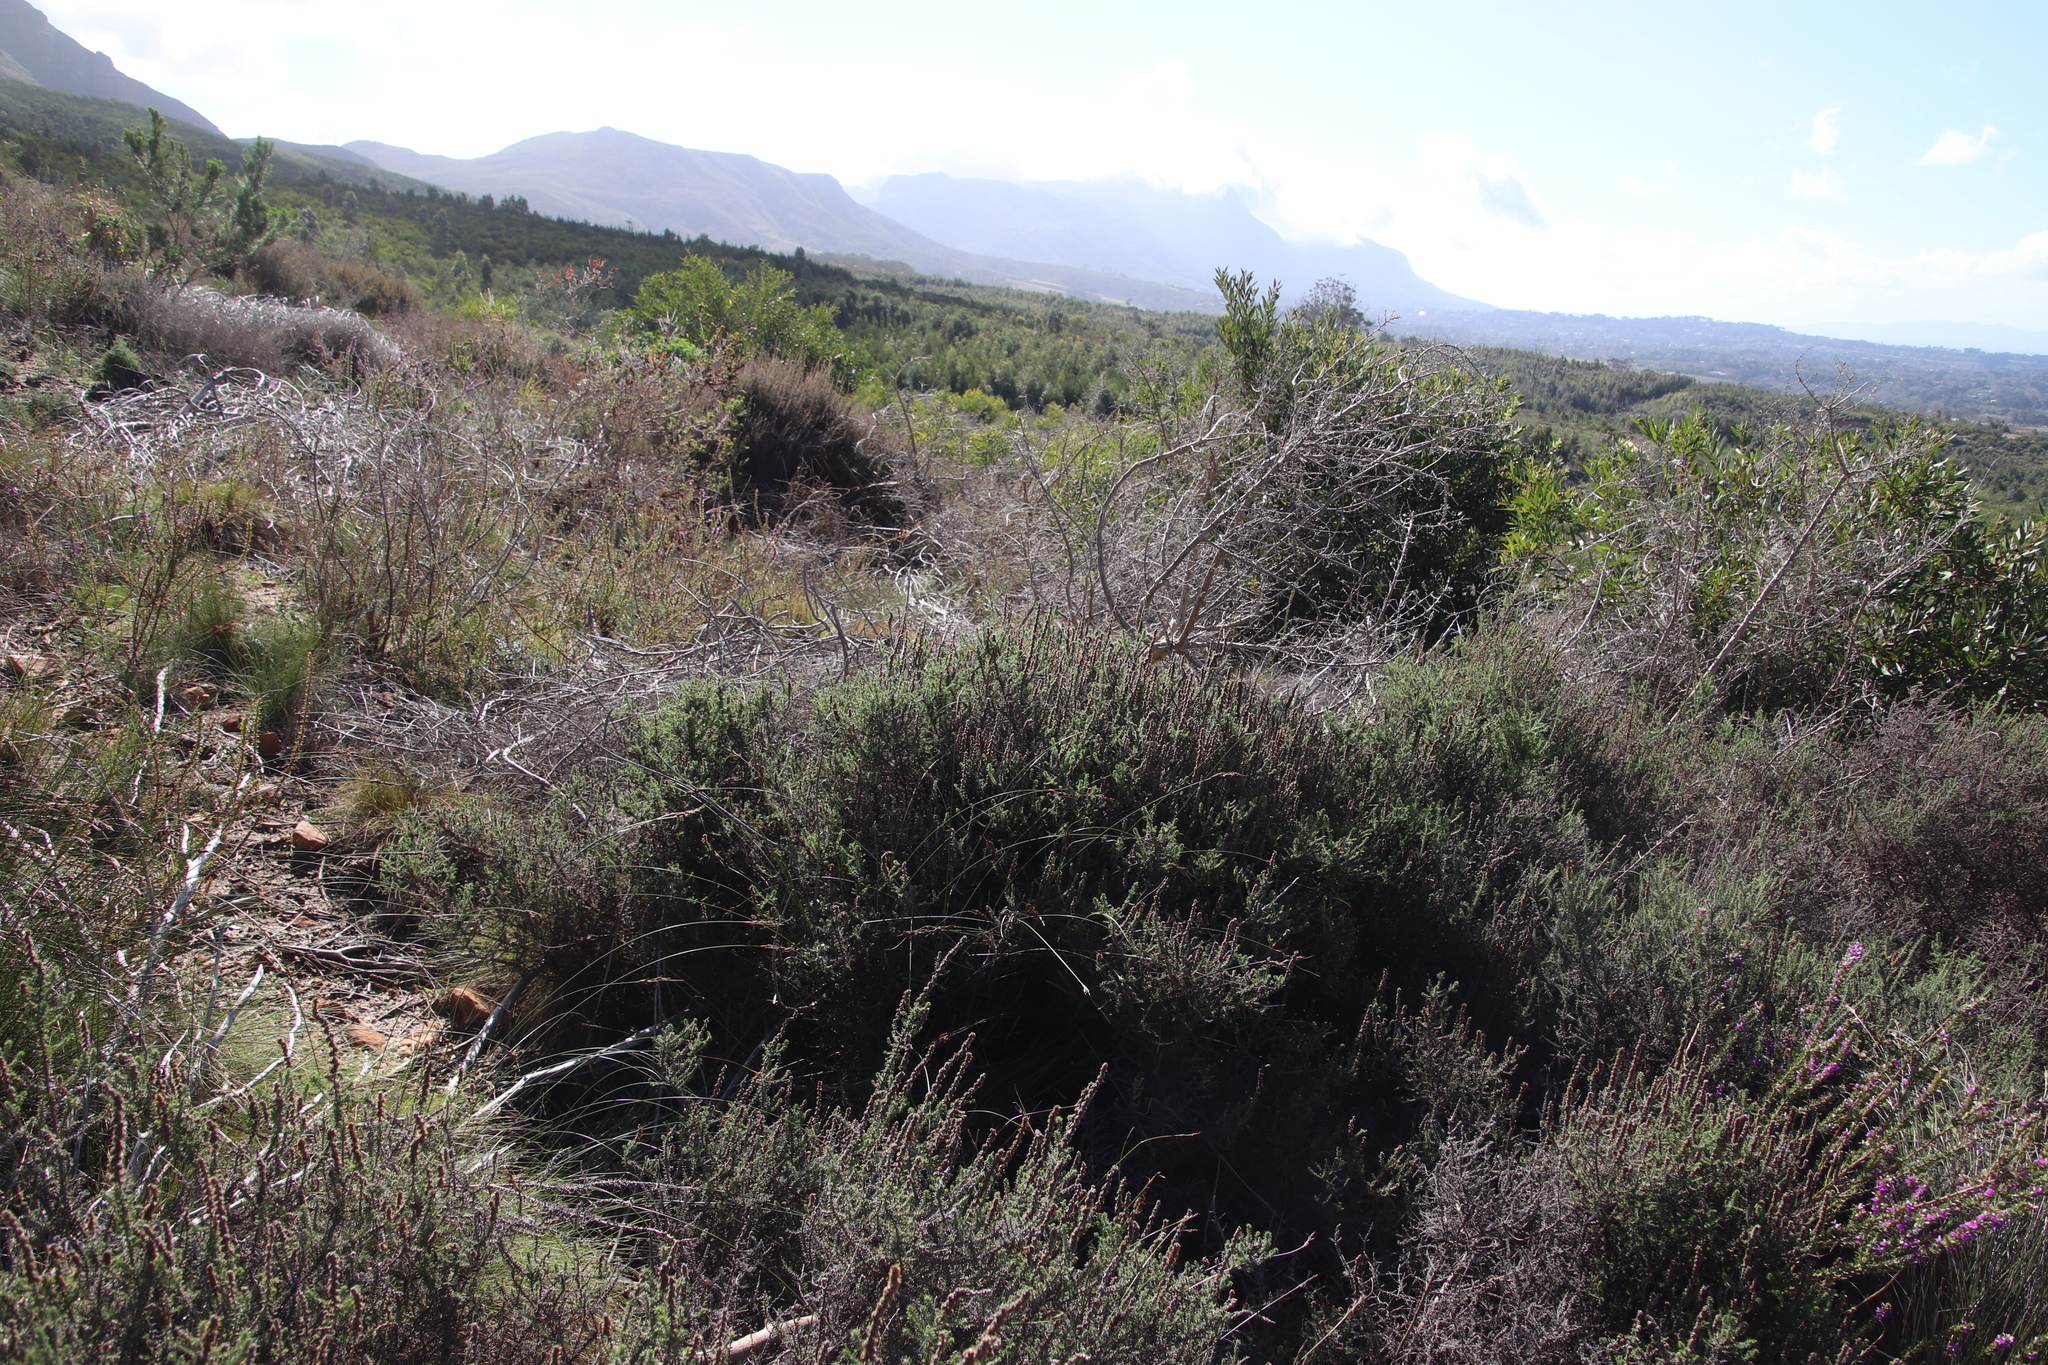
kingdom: Plantae
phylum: Tracheophyta
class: Magnoliopsida
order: Asterales
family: Asteraceae
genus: Seriphium
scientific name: Seriphium cinereum
